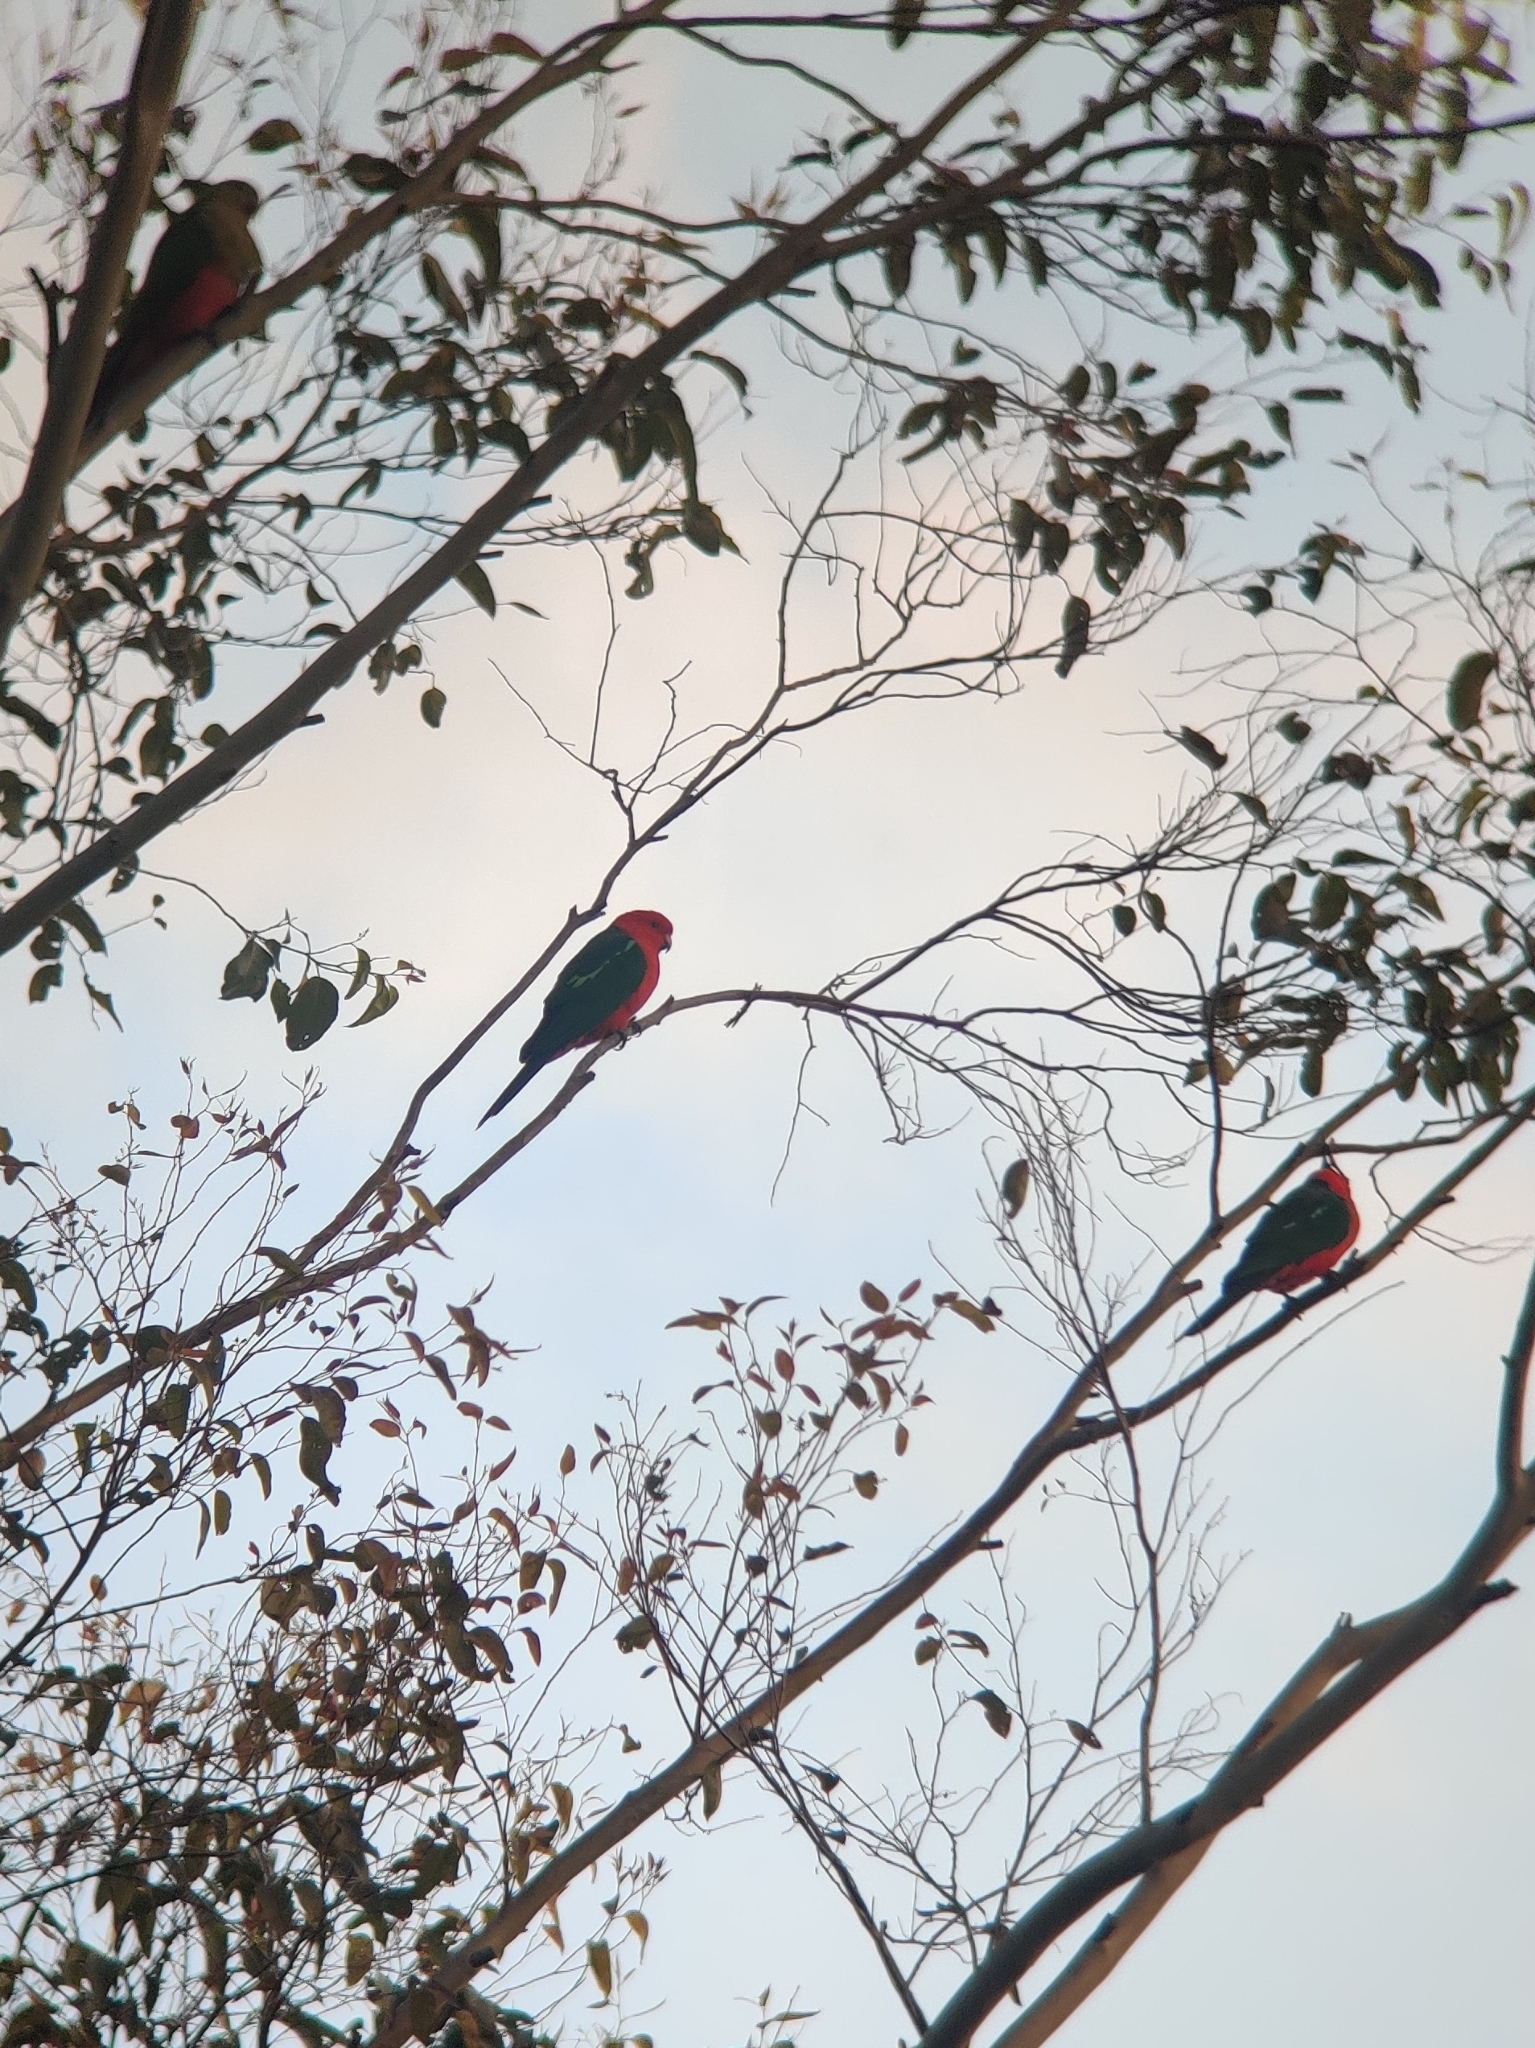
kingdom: Animalia
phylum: Chordata
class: Aves
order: Psittaciformes
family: Psittacidae
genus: Alisterus
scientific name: Alisterus scapularis
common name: Australian king parrot
